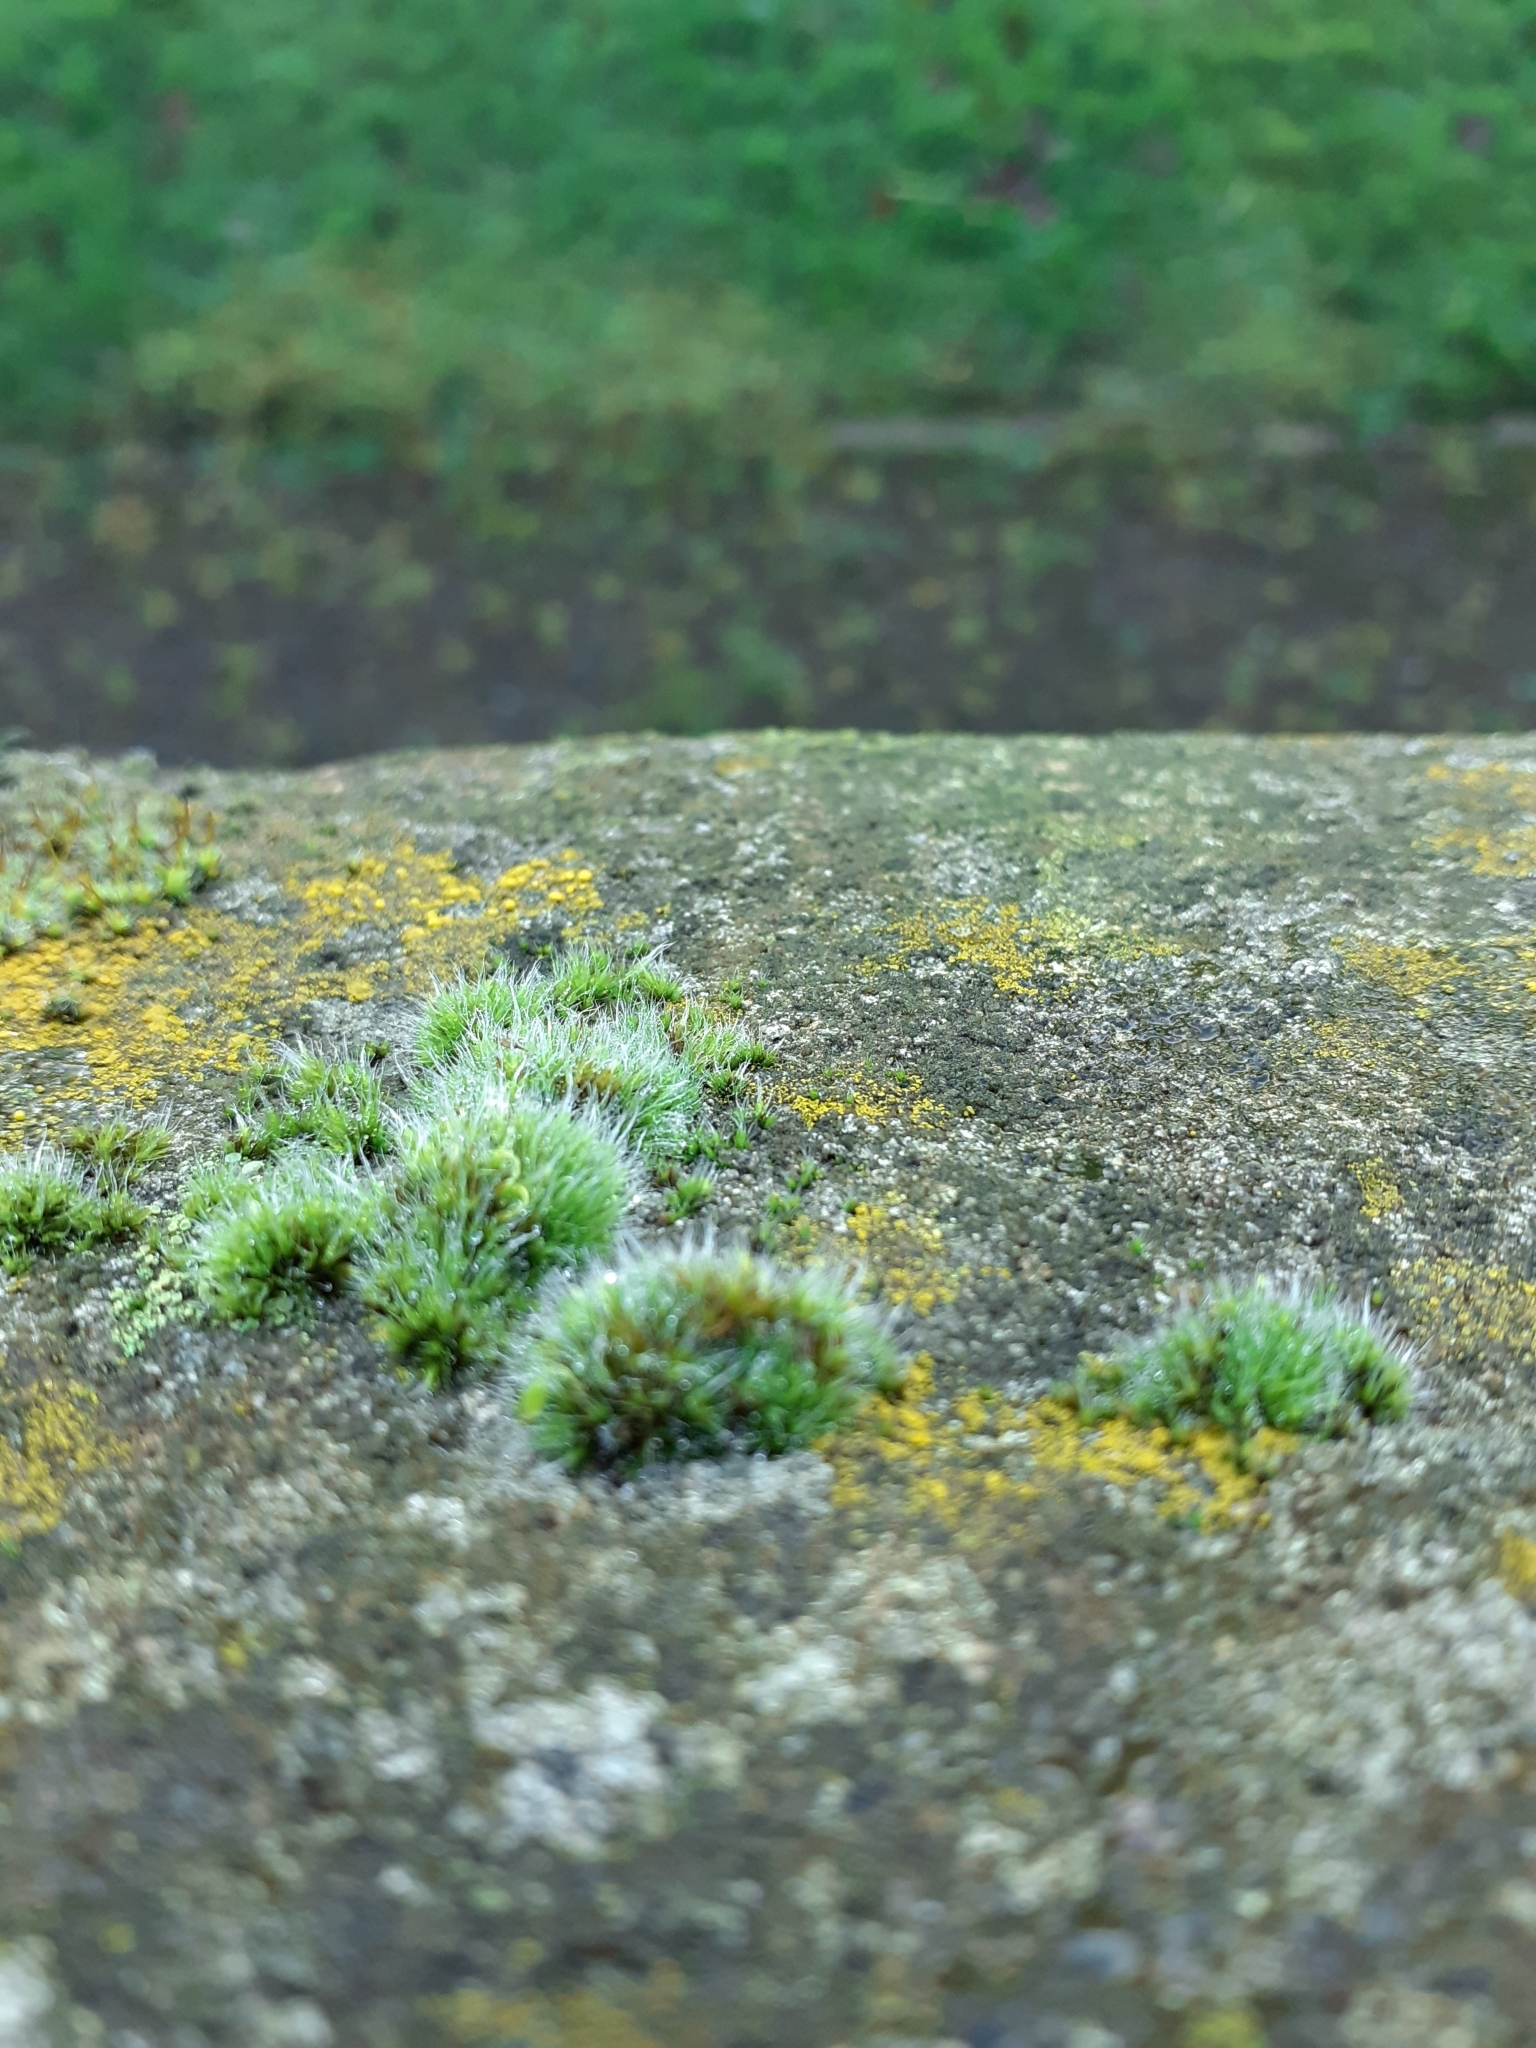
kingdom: Plantae
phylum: Bryophyta
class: Bryopsida
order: Grimmiales
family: Grimmiaceae
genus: Grimmia
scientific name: Grimmia pulvinata
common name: Grey-cushioned grimmia
